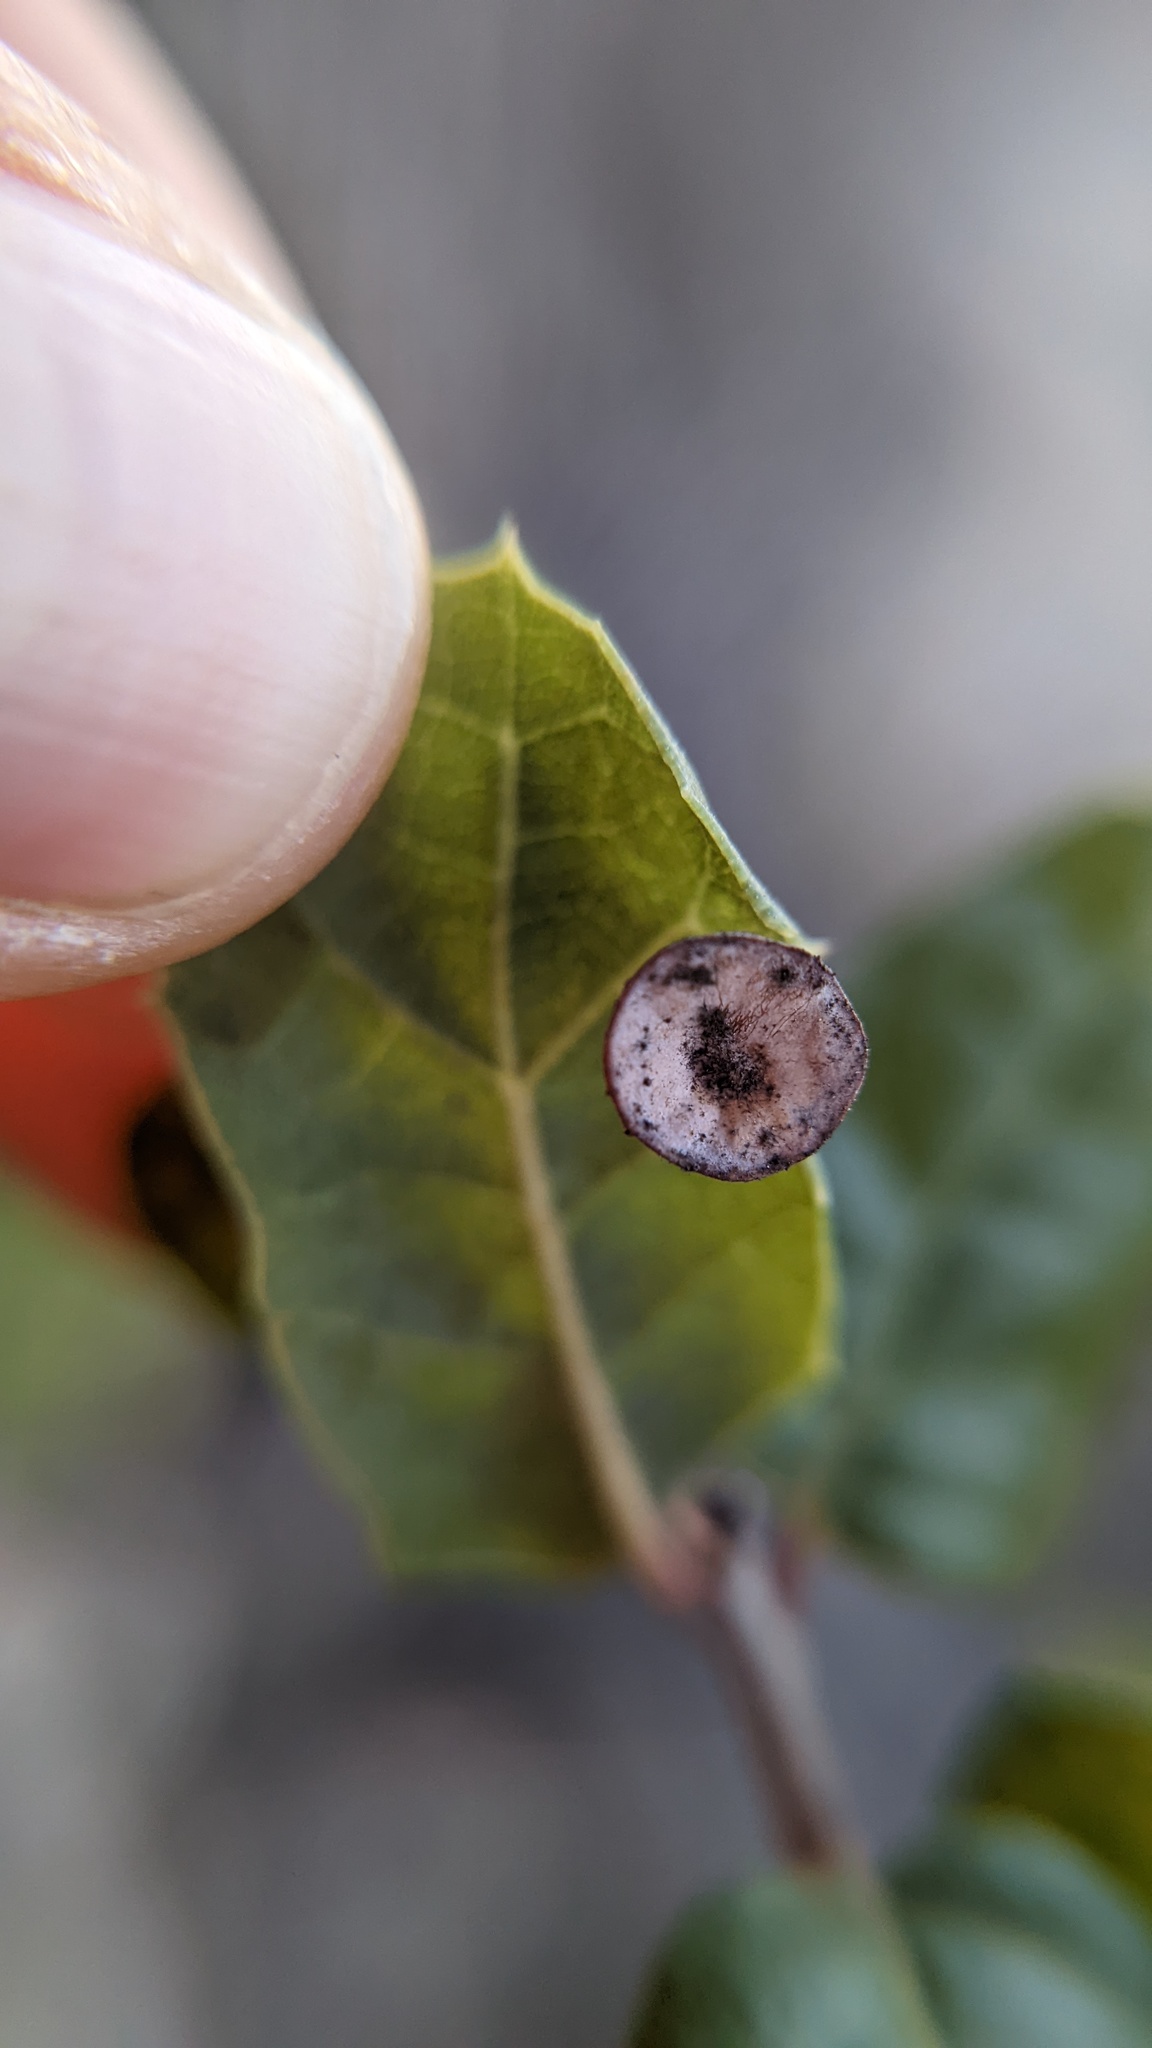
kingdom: Animalia
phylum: Arthropoda
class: Insecta
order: Hymenoptera
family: Cynipidae
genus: Amphibolips
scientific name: Amphibolips quercuspomiformis
